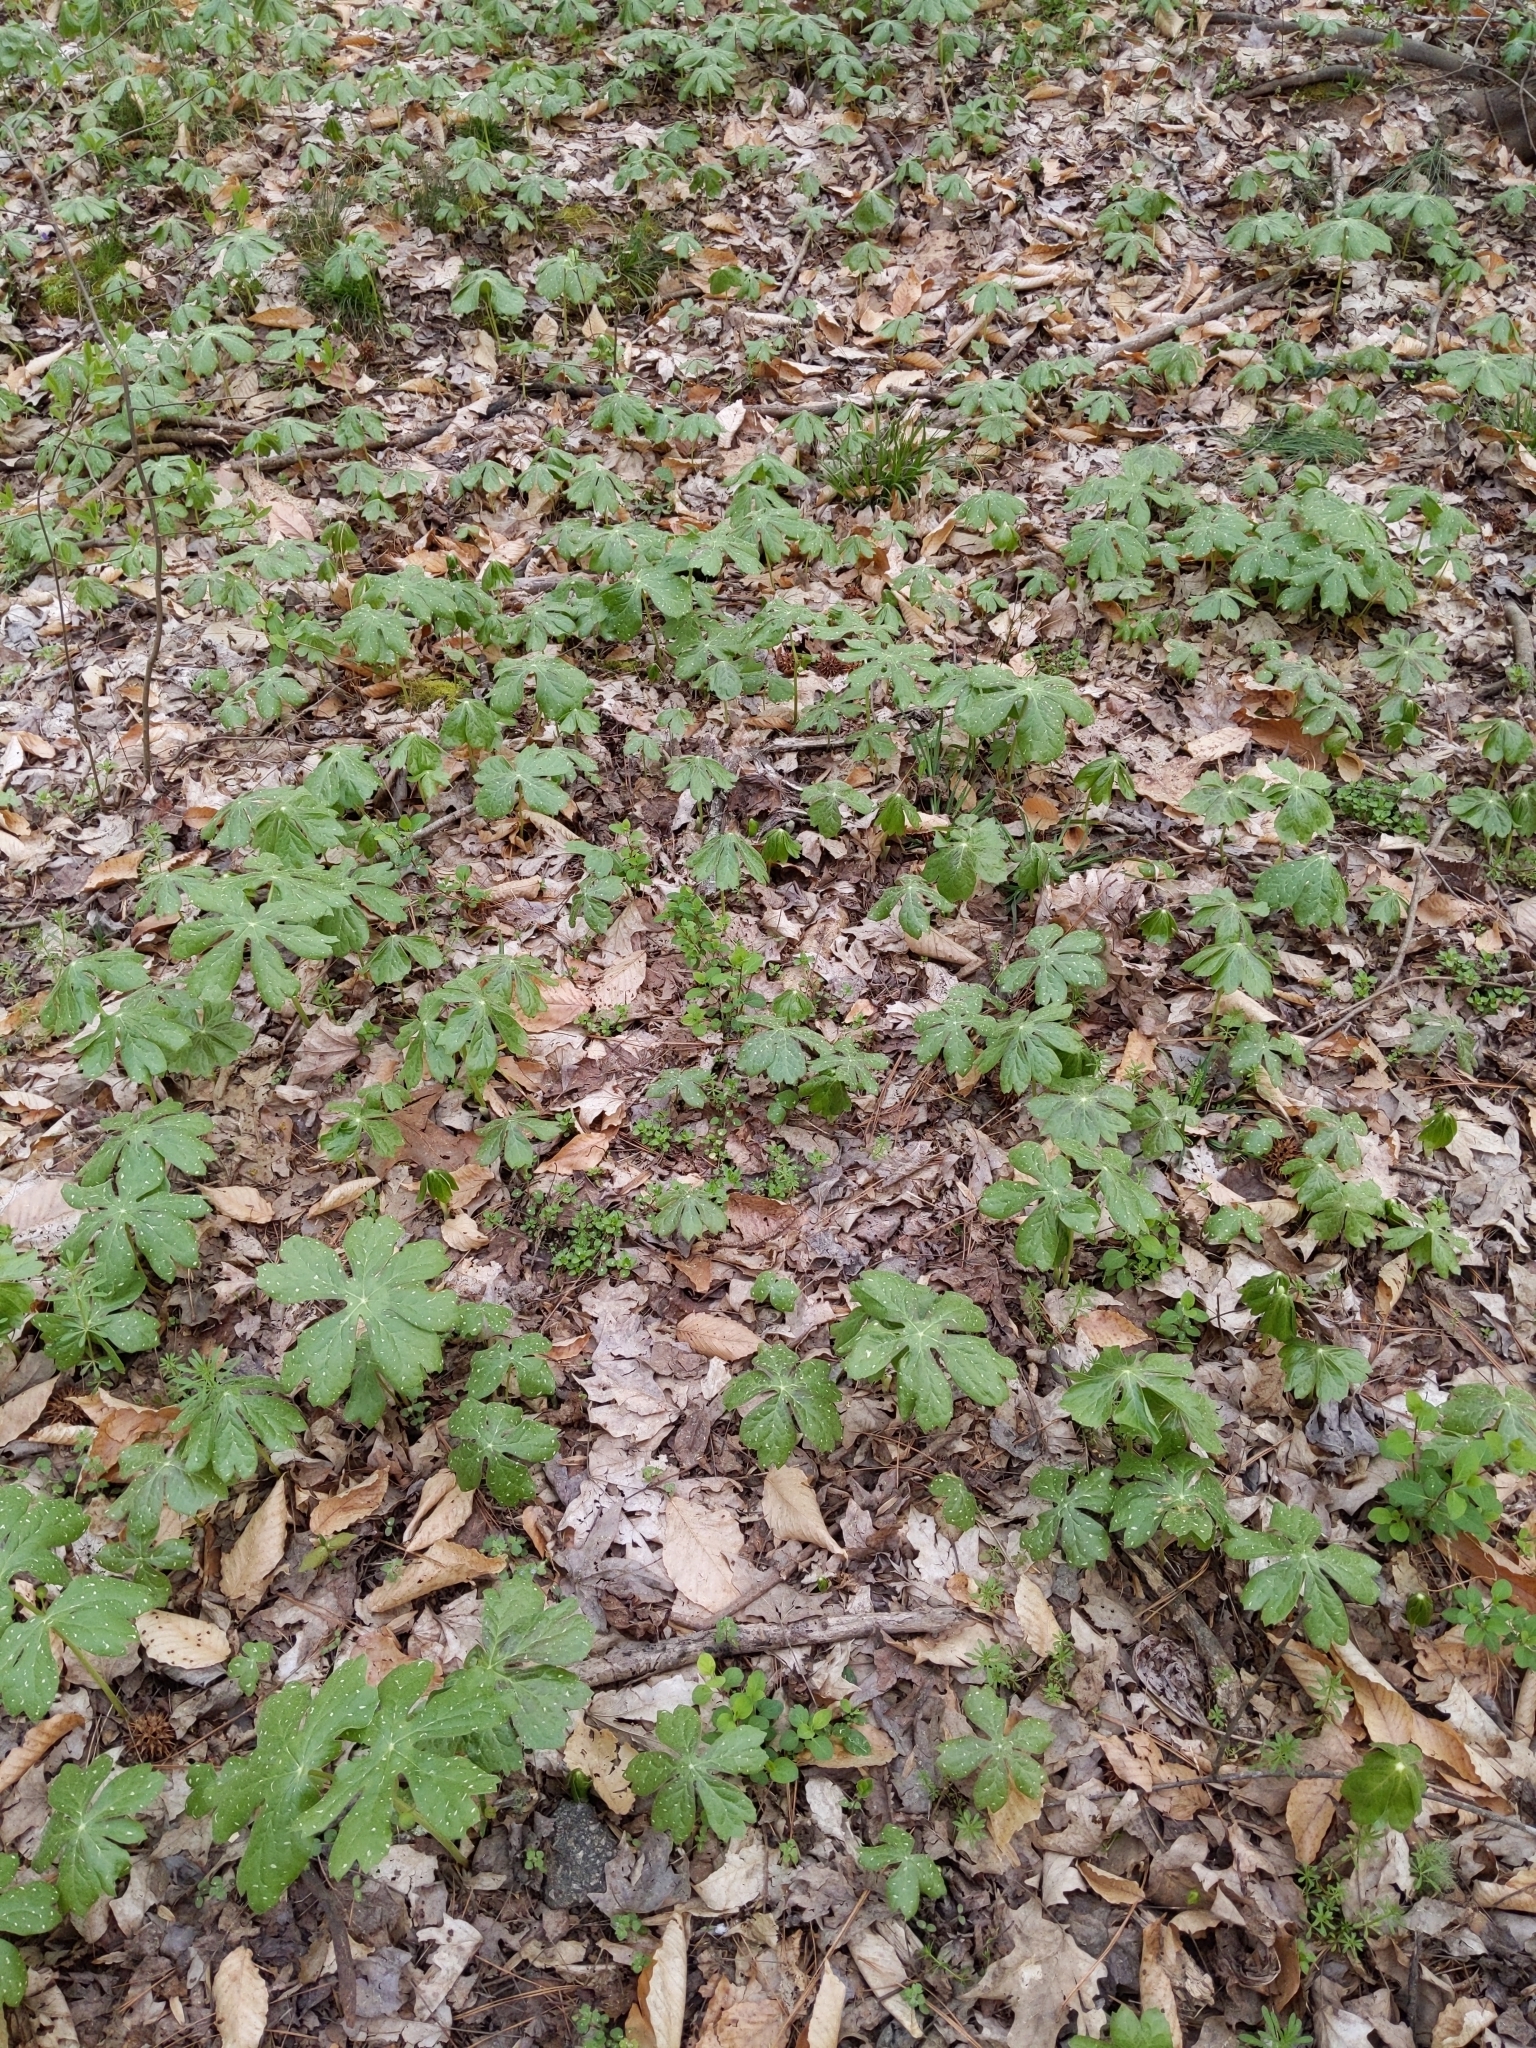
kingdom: Plantae
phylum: Tracheophyta
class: Magnoliopsida
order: Ranunculales
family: Berberidaceae
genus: Podophyllum
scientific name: Podophyllum peltatum
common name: Wild mandrake
